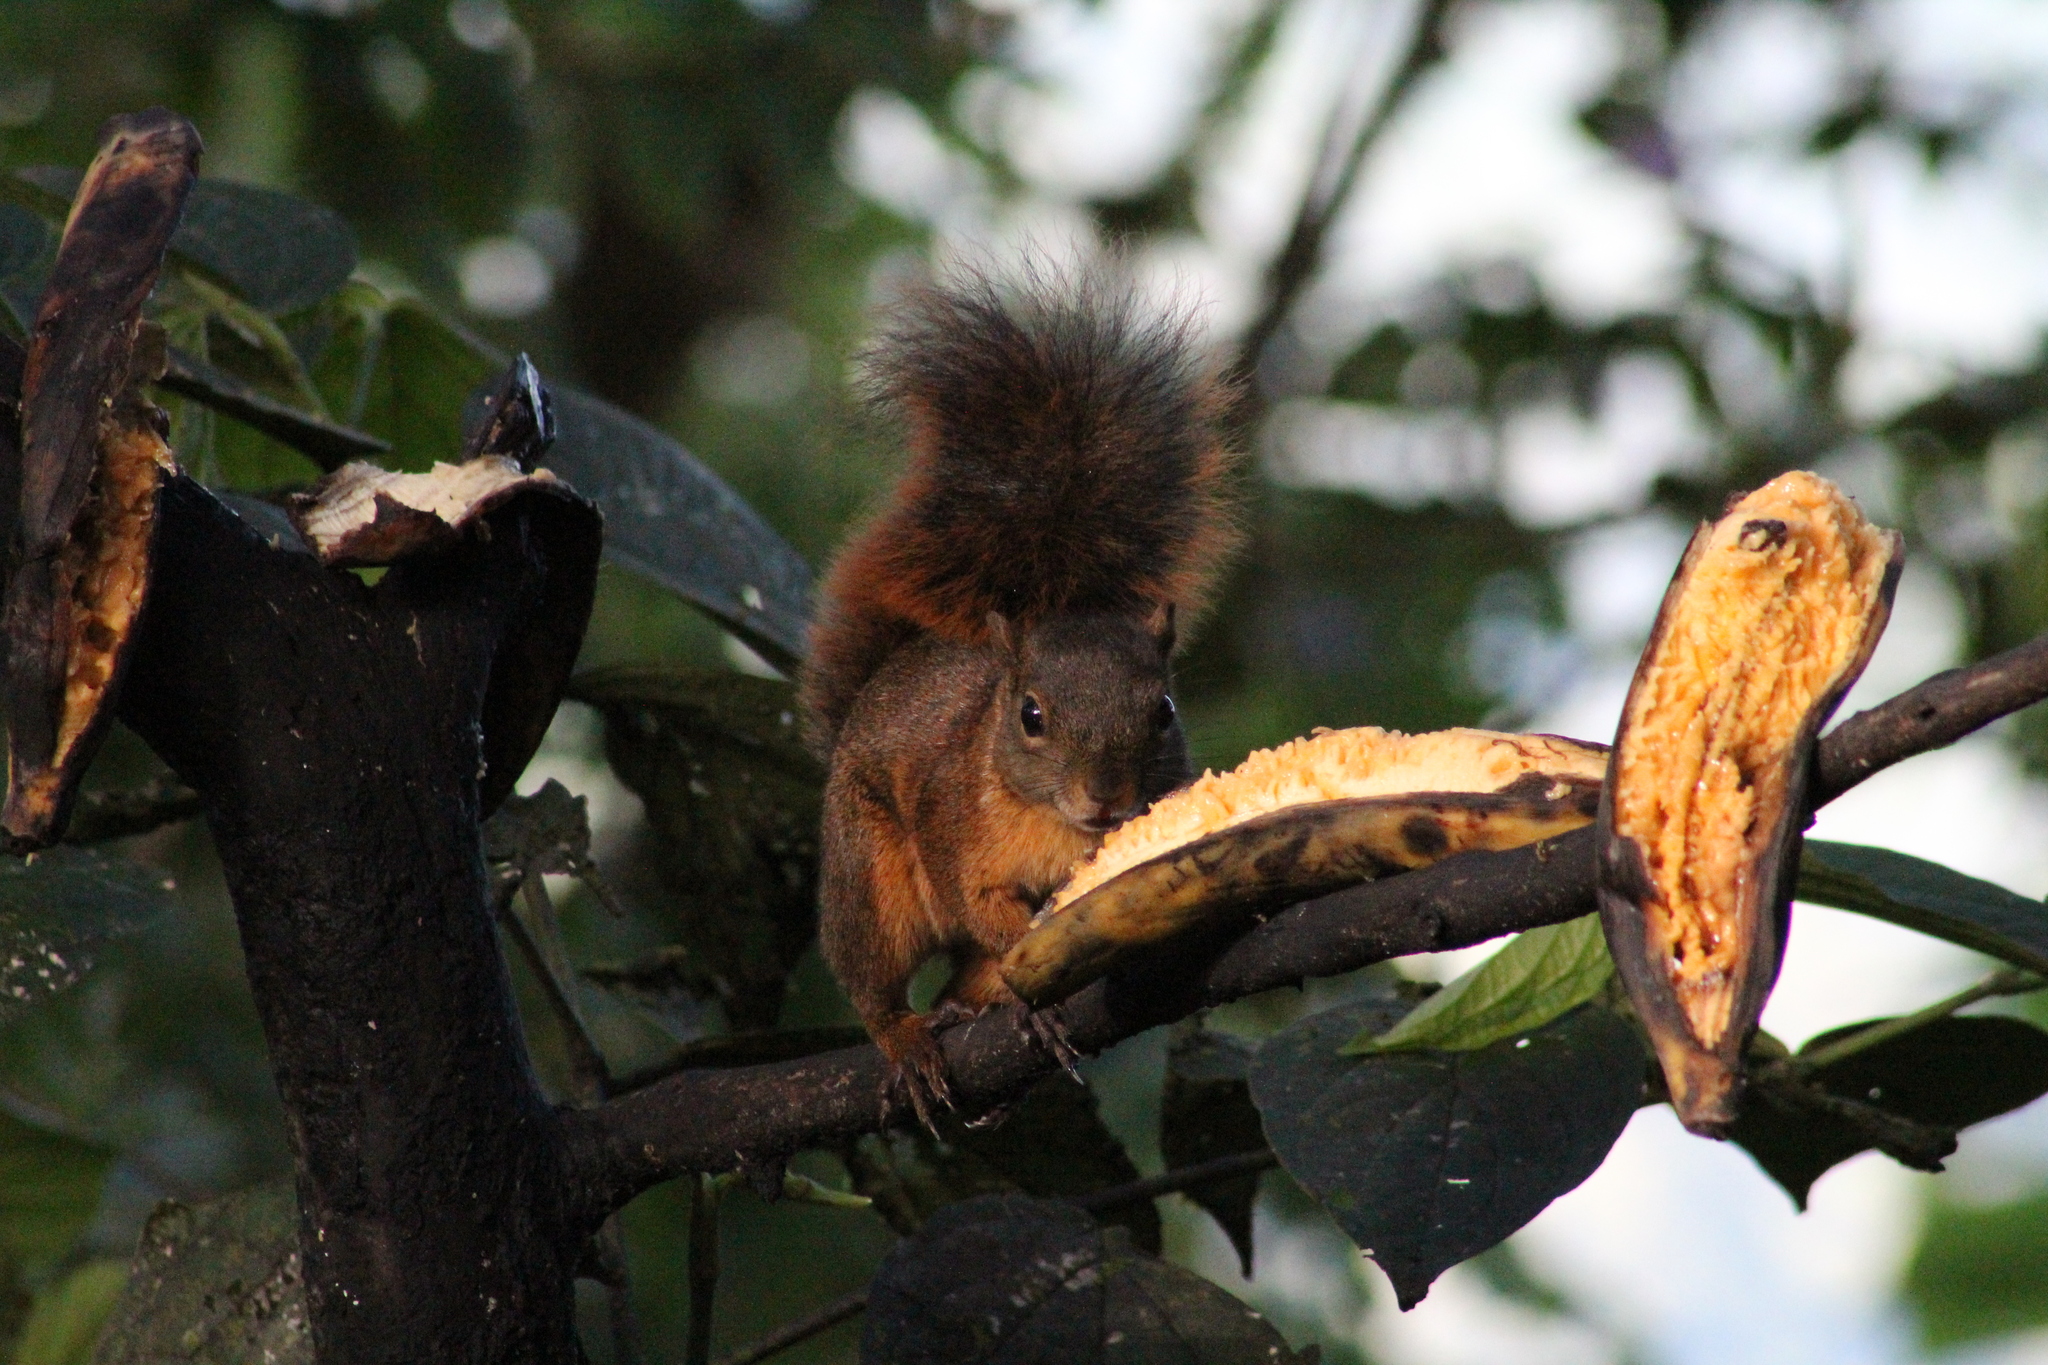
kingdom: Animalia
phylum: Chordata
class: Mammalia
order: Rodentia
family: Sciuridae
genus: Sciurus
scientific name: Sciurus granatensis
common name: Red-tailed squirrel
